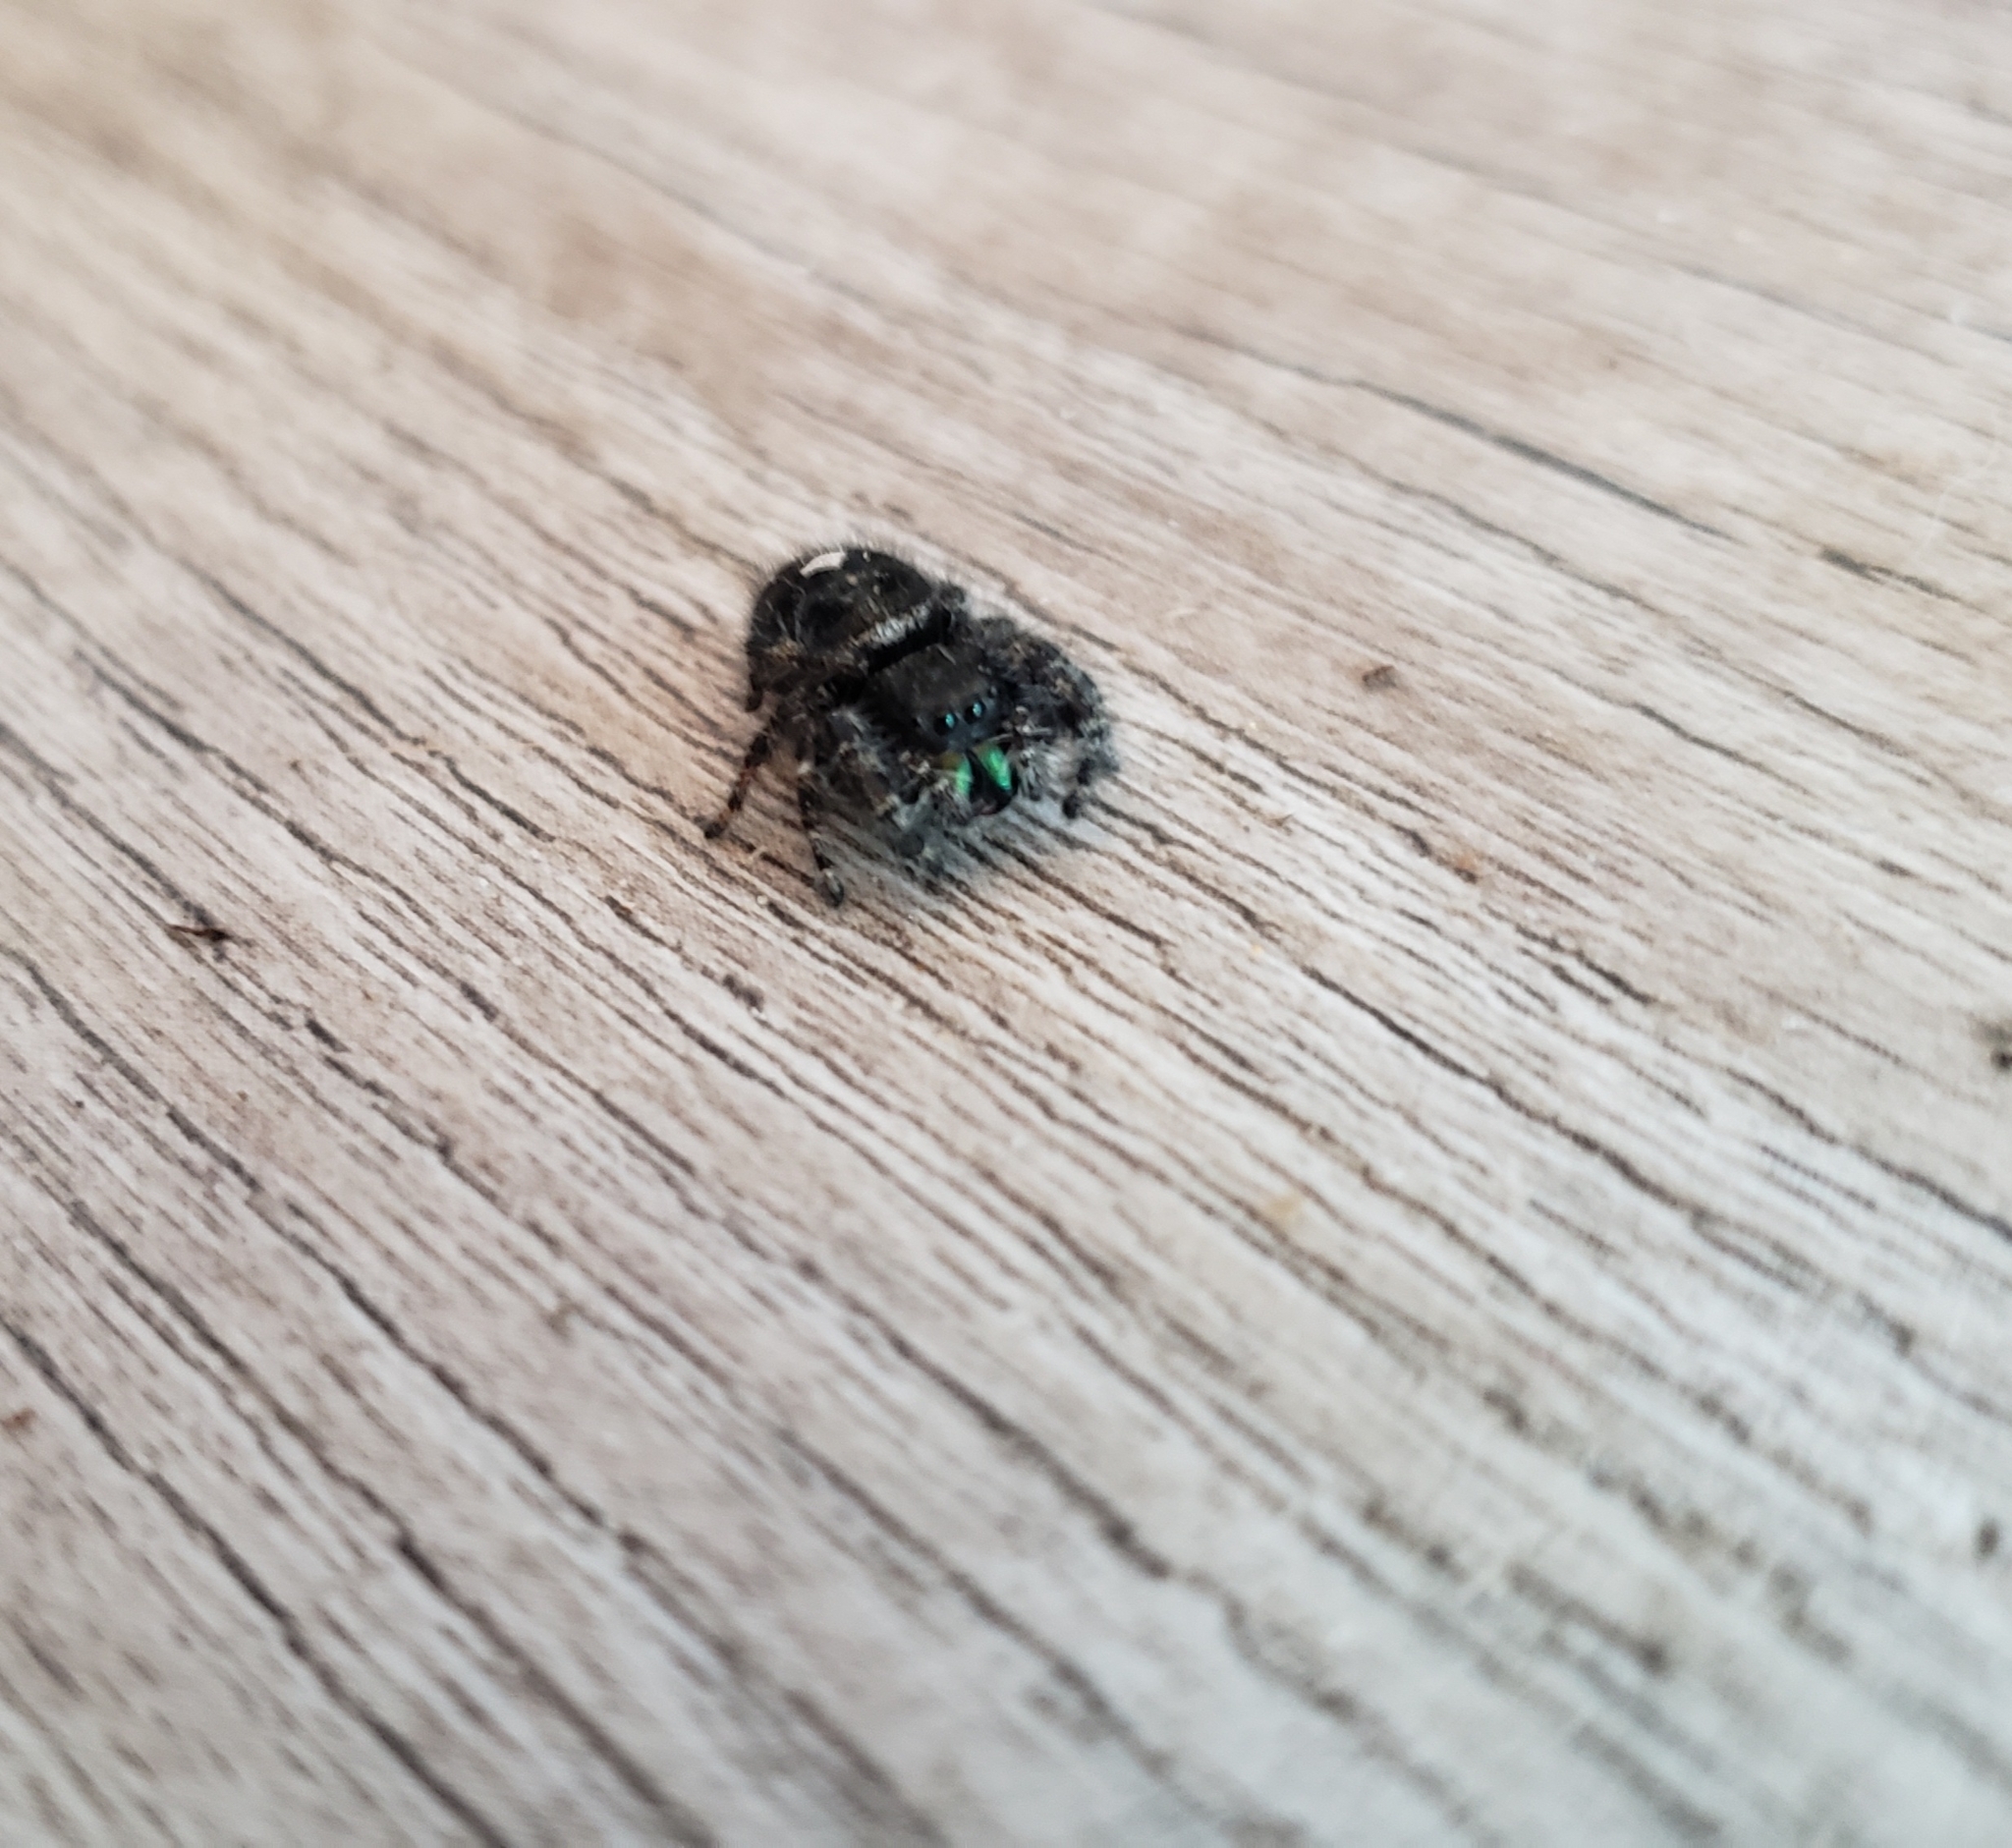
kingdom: Animalia
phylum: Arthropoda
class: Arachnida
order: Araneae
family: Salticidae
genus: Phidippus
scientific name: Phidippus audax
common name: Bold jumper
